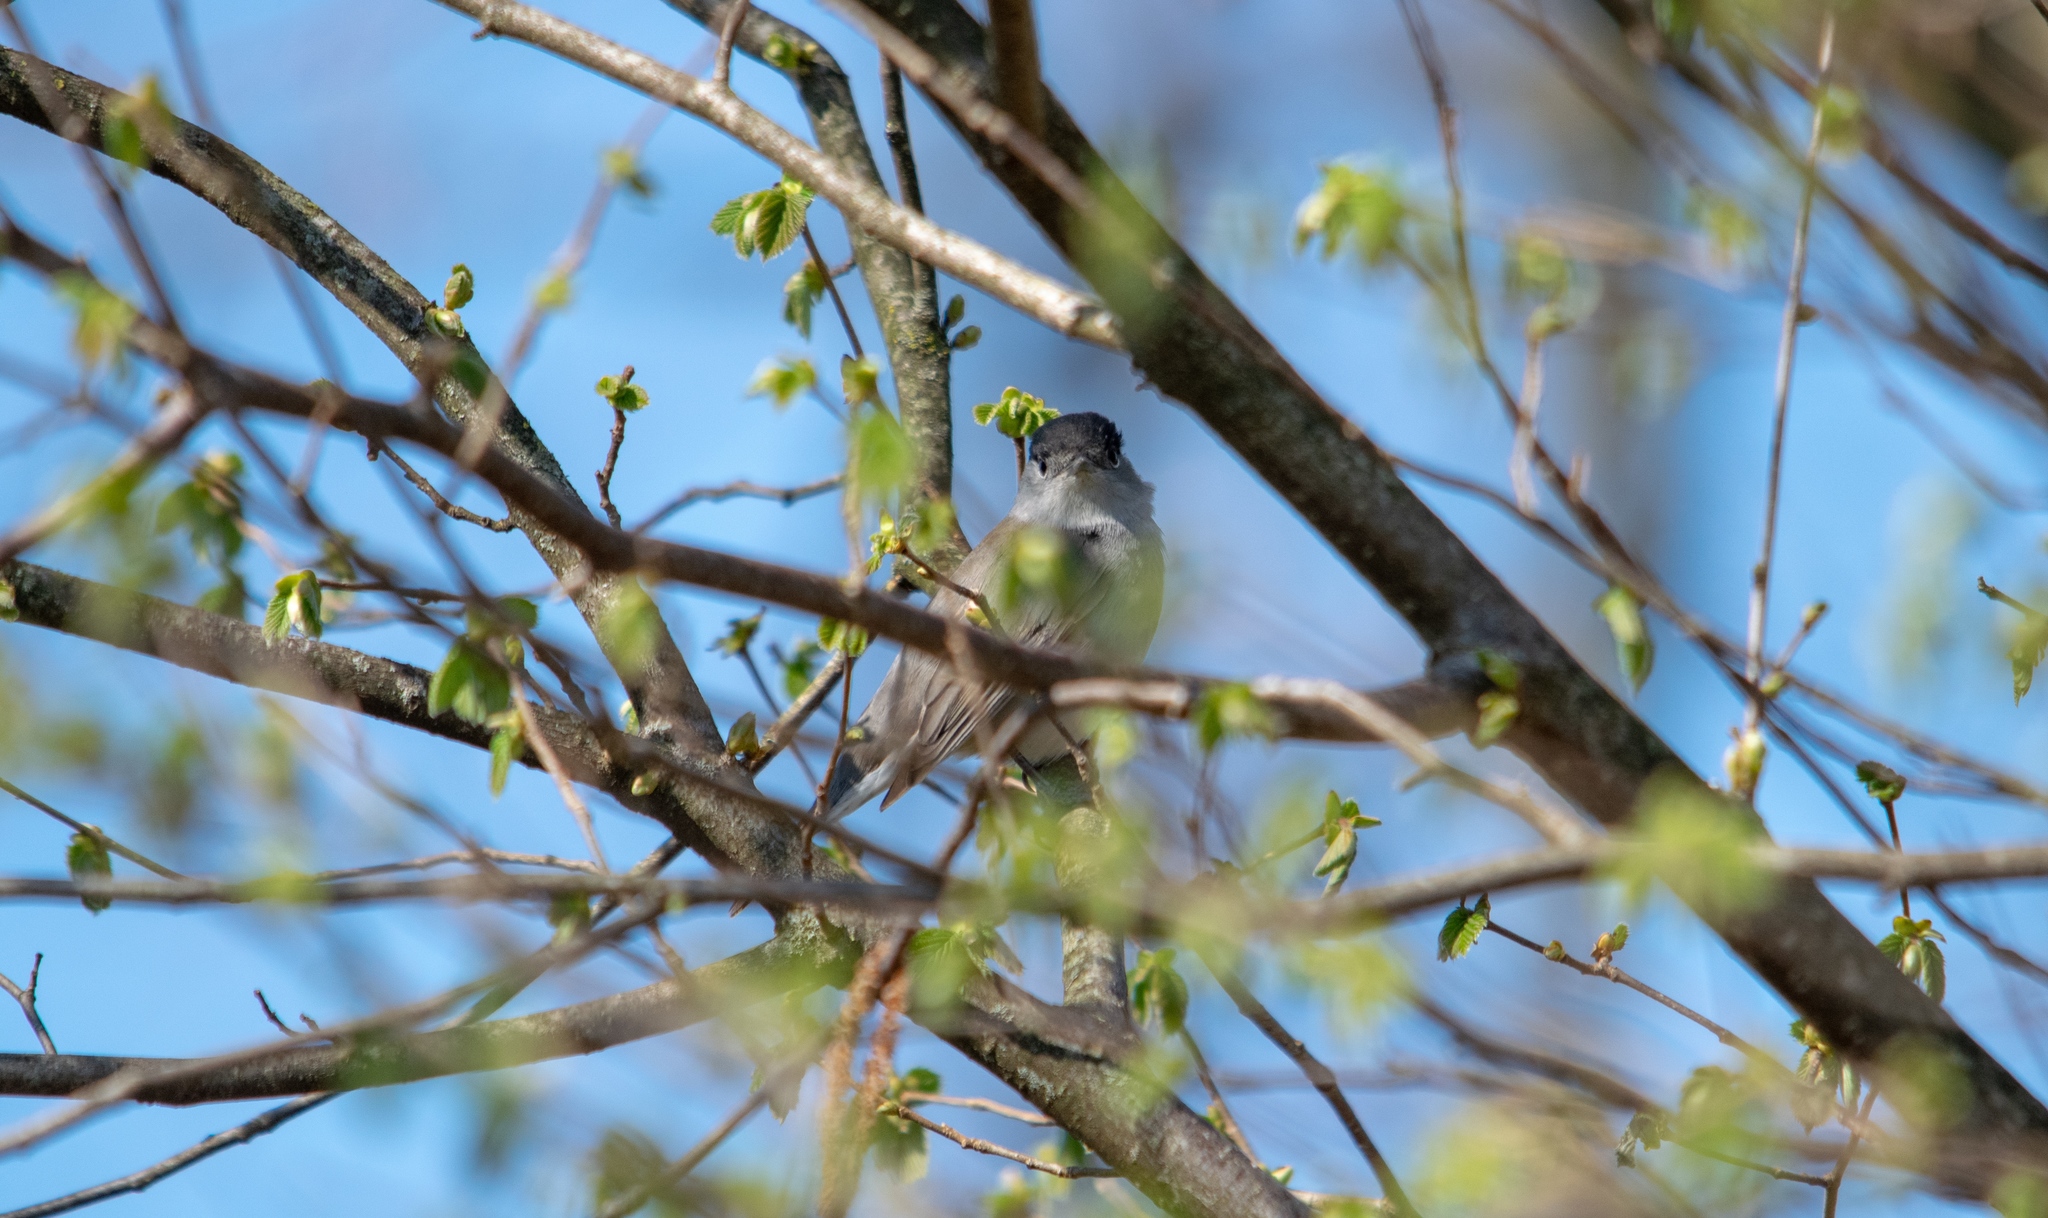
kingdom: Animalia
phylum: Chordata
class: Aves
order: Passeriformes
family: Sylviidae
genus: Sylvia
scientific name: Sylvia atricapilla
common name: Eurasian blackcap
